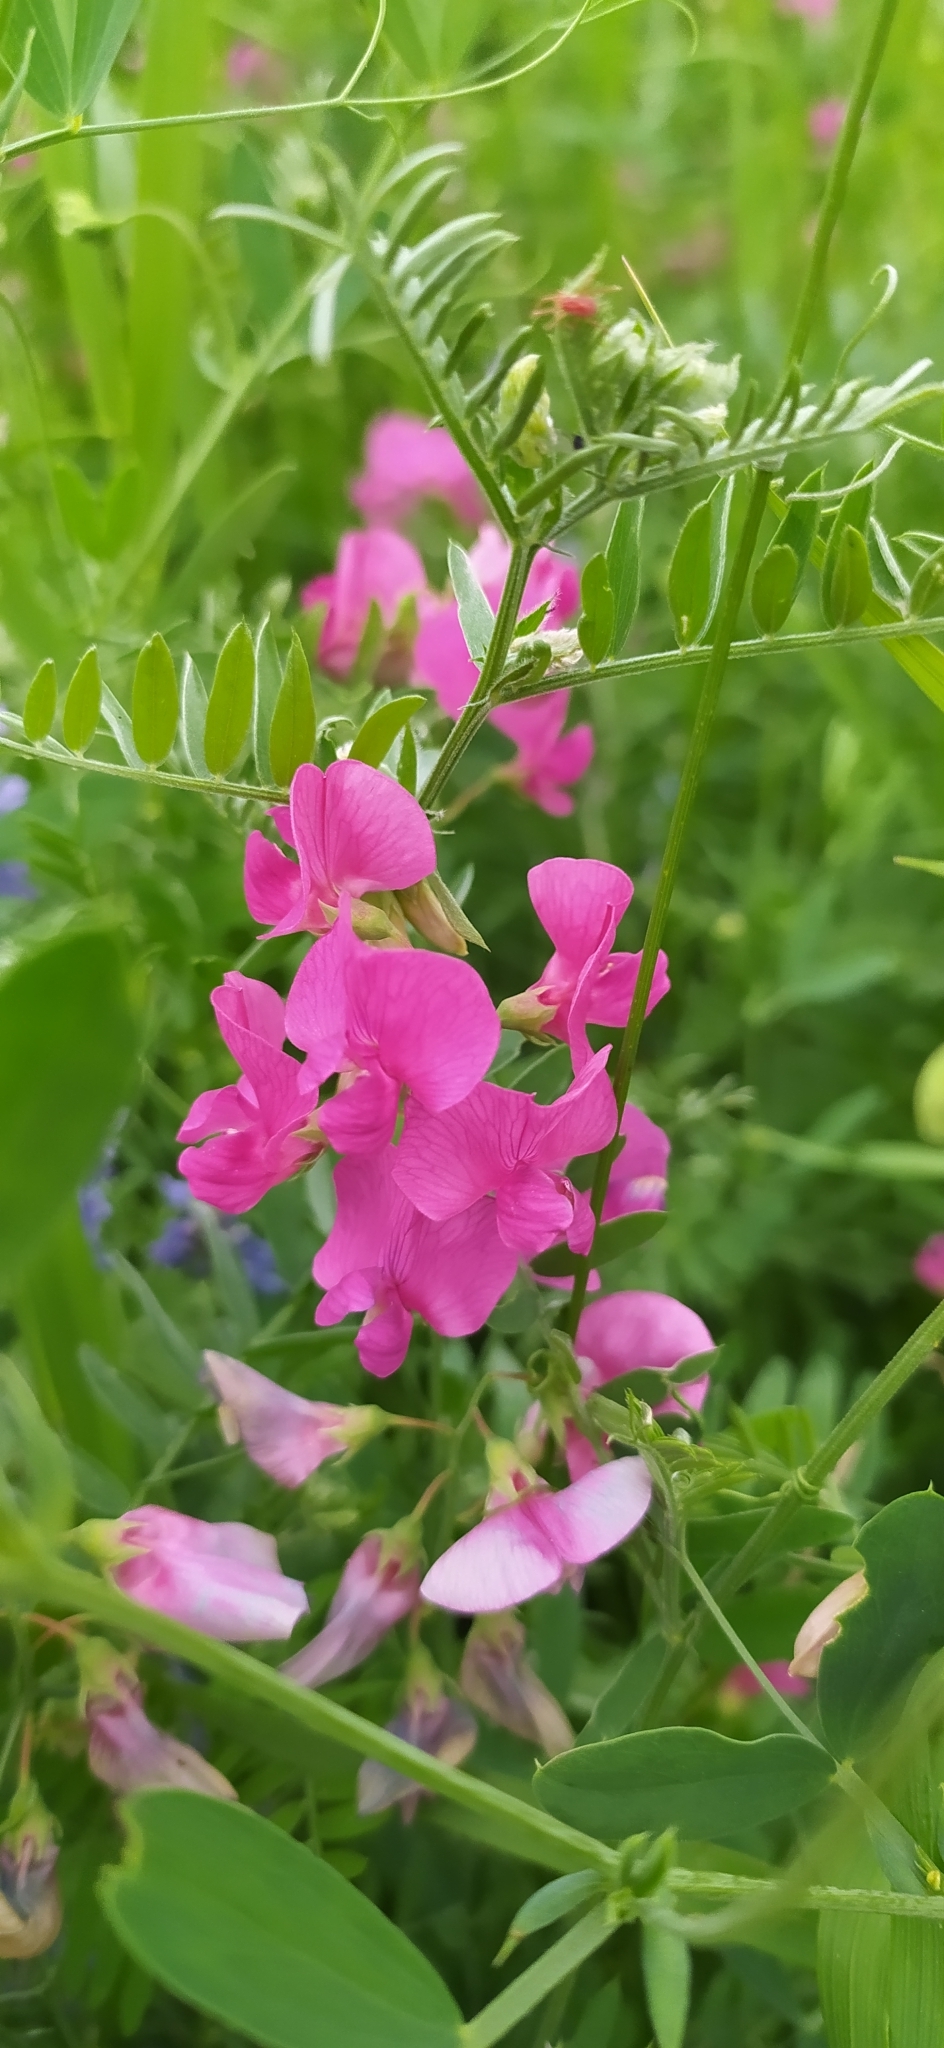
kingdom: Plantae
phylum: Tracheophyta
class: Magnoliopsida
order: Fabales
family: Fabaceae
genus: Lathyrus
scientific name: Lathyrus tuberosus
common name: Tuberous pea
